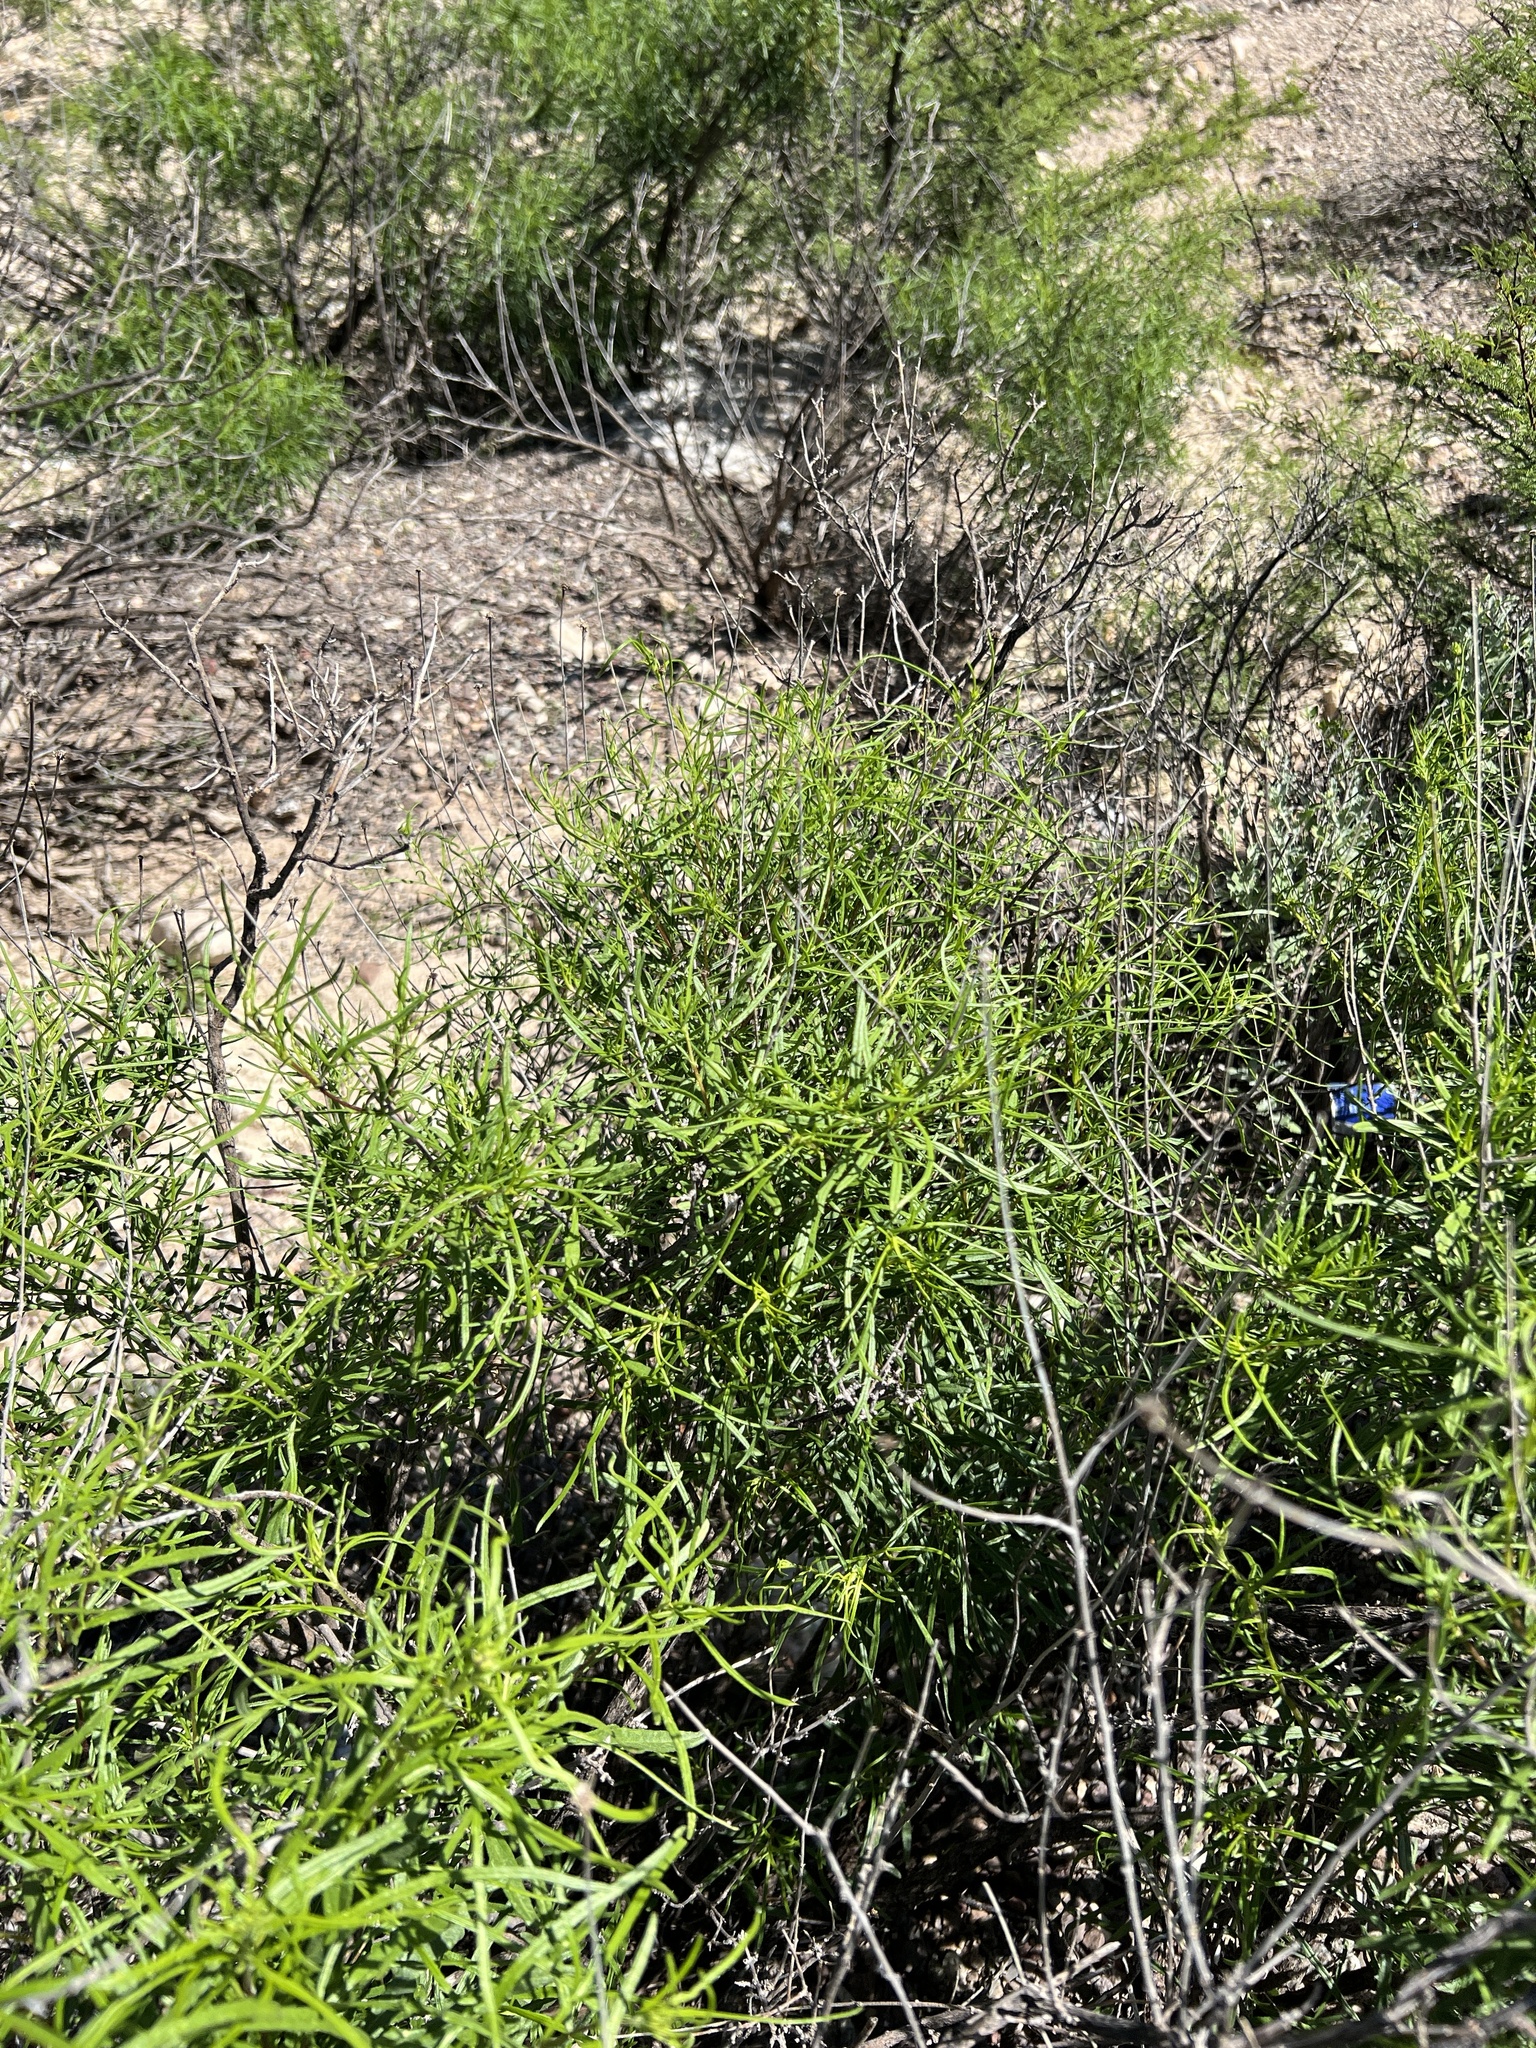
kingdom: Plantae
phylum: Tracheophyta
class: Magnoliopsida
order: Asterales
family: Asteraceae
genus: Sidneya
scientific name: Sidneya tenuifolia
